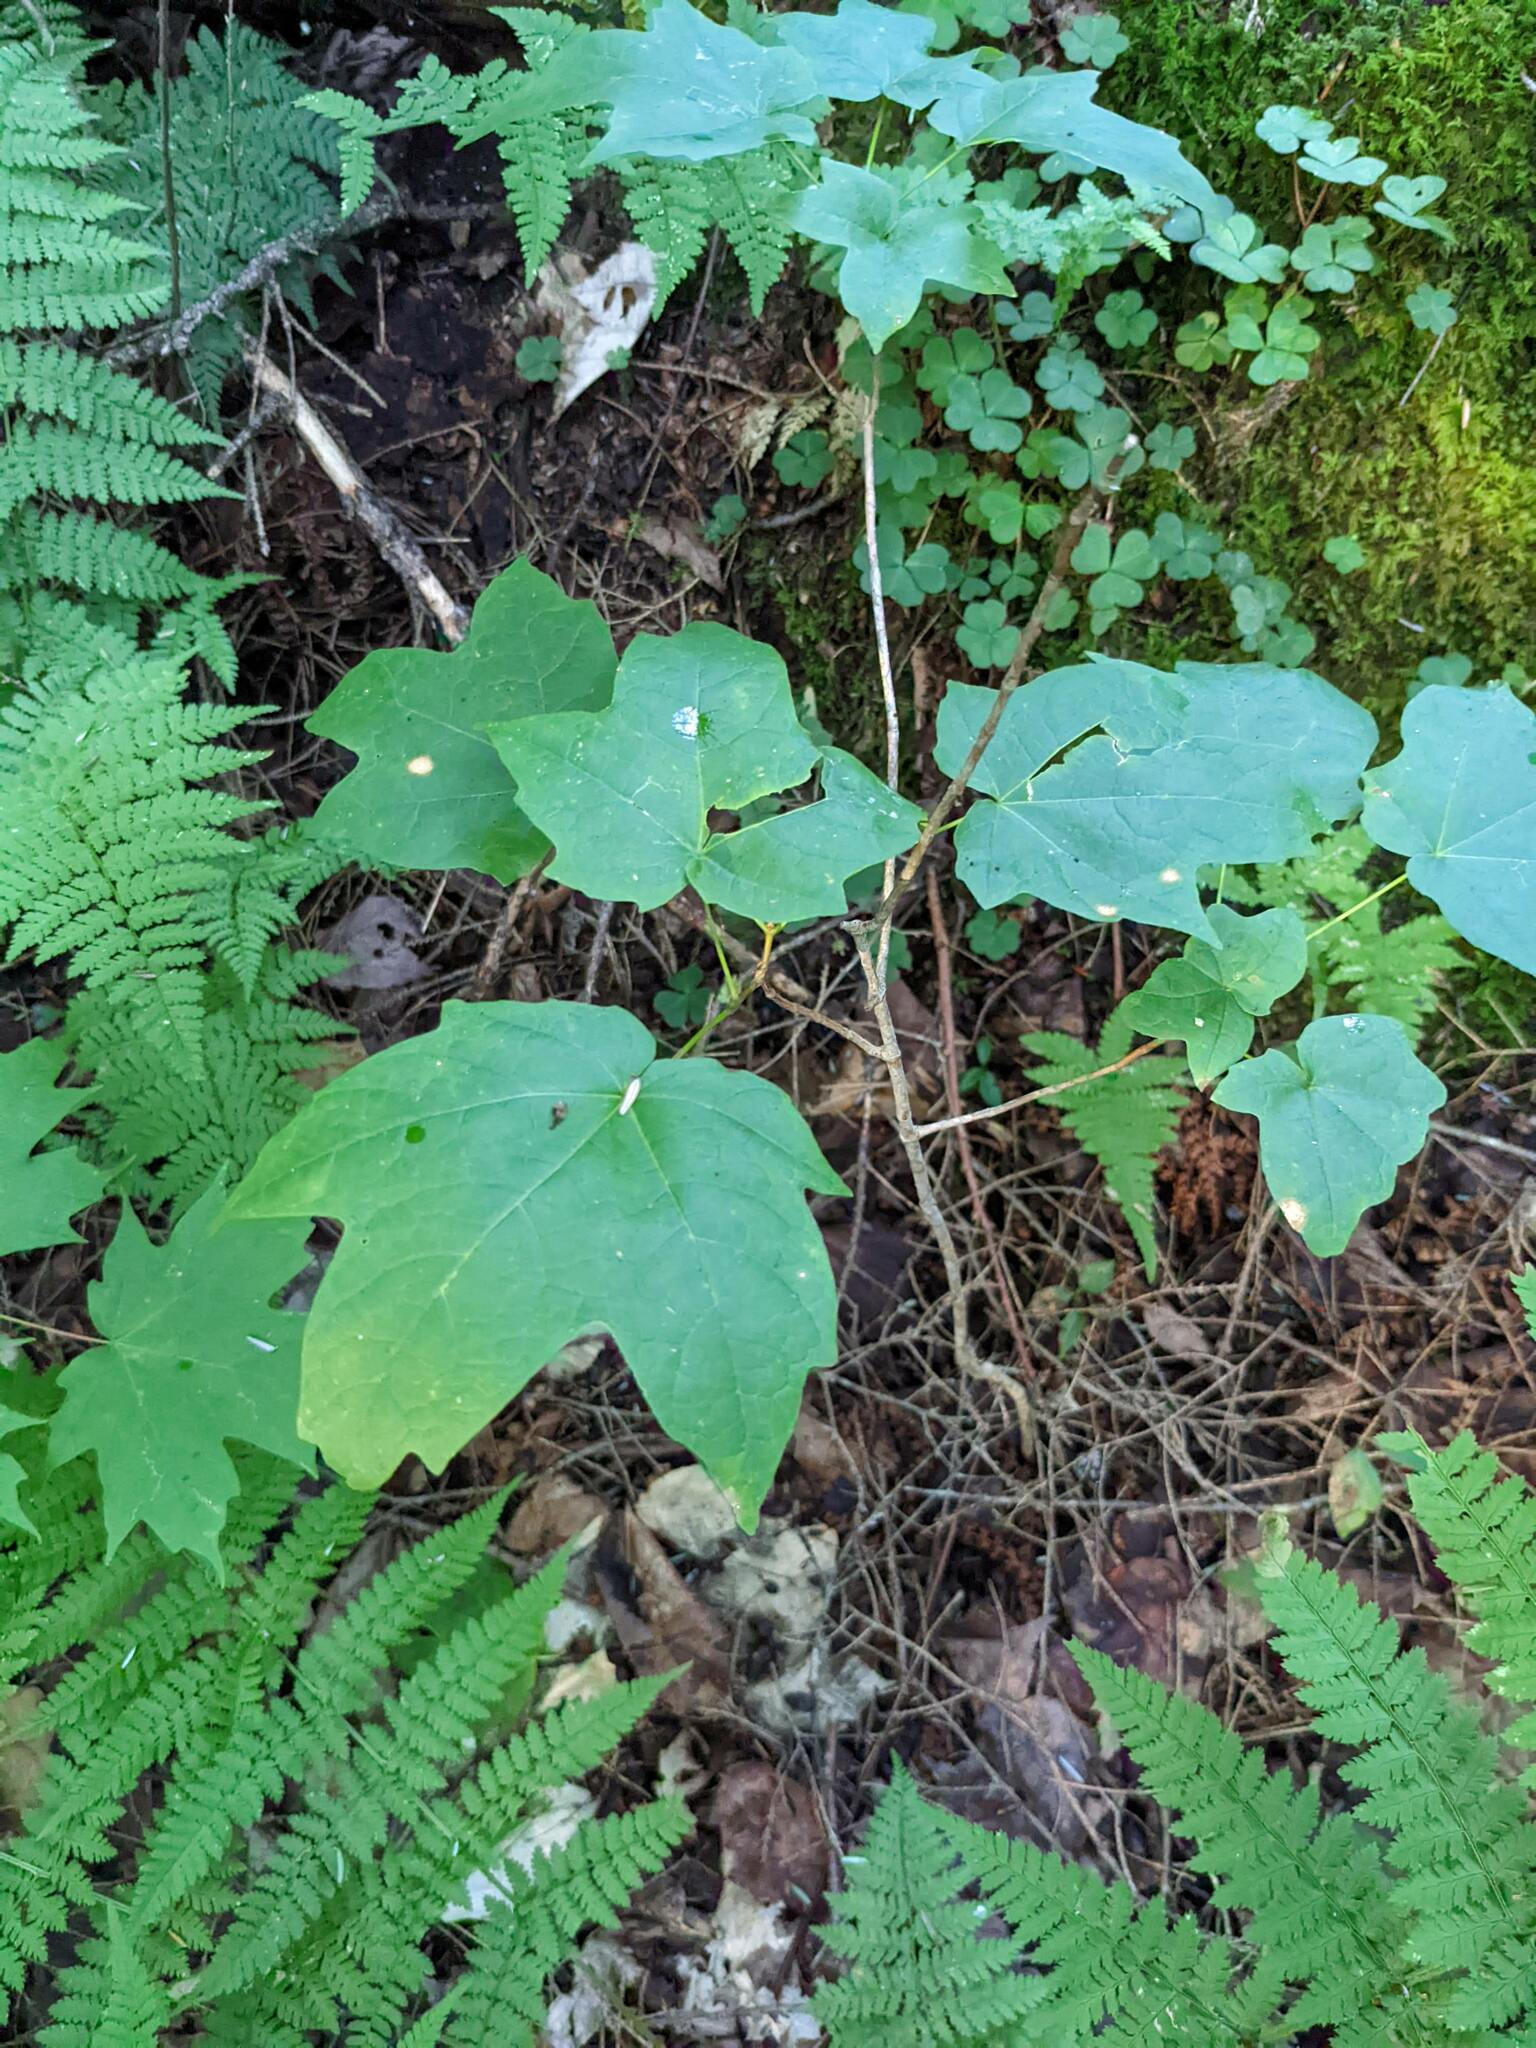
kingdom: Plantae
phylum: Tracheophyta
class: Magnoliopsida
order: Sapindales
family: Sapindaceae
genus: Acer
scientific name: Acer saccharum
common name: Sugar maple
